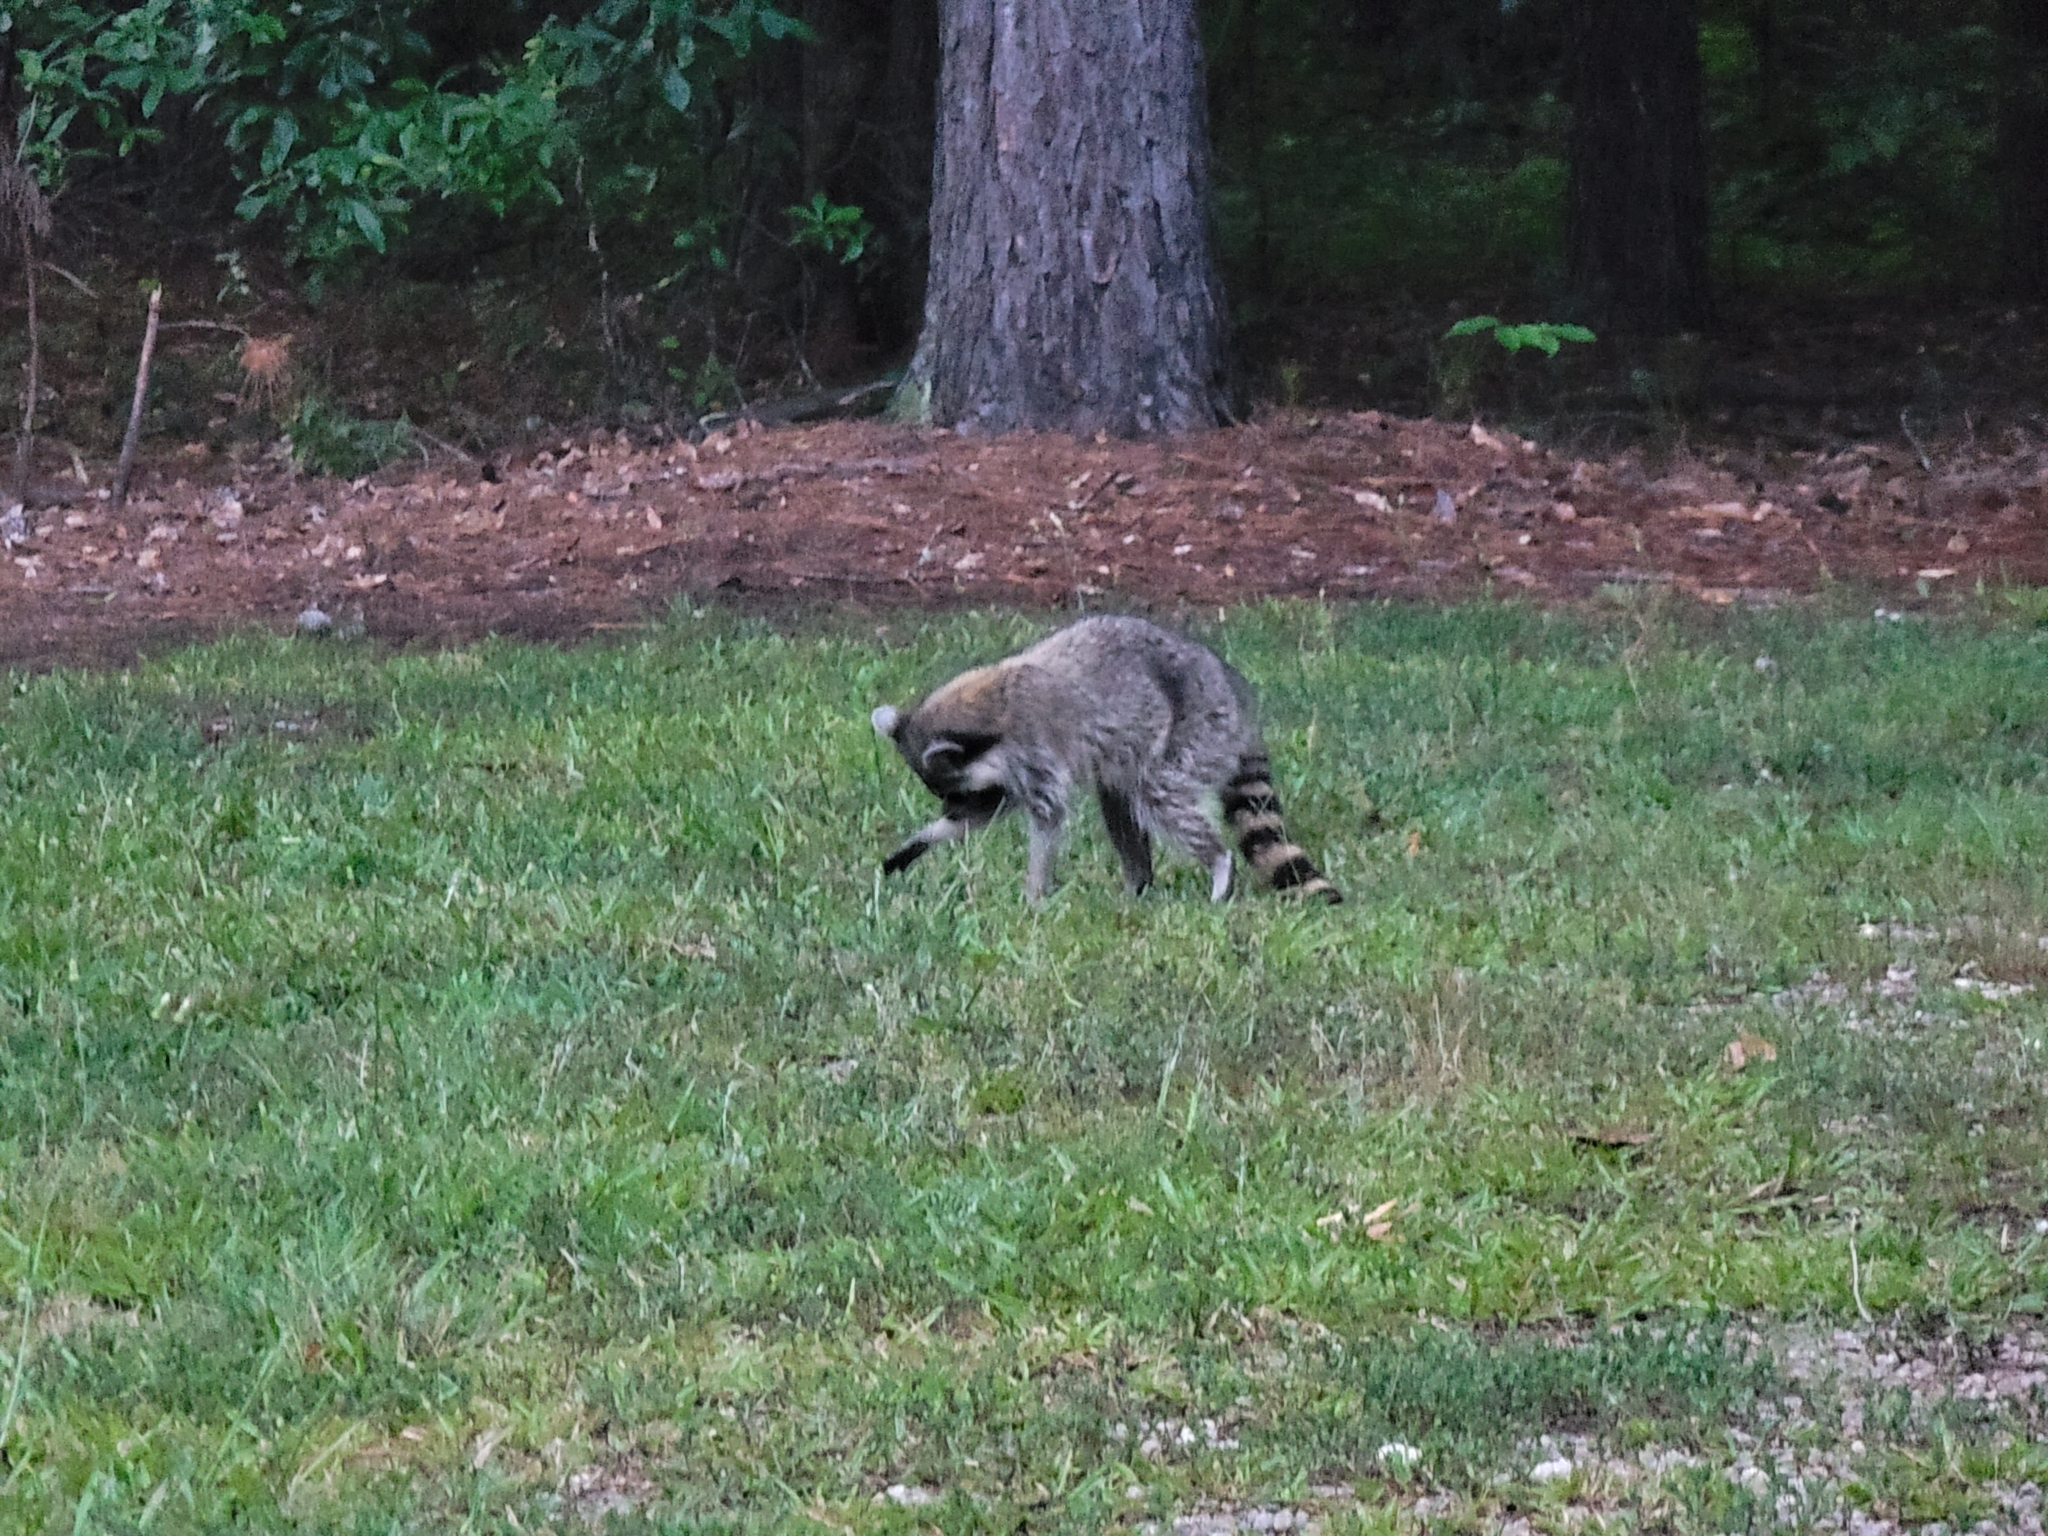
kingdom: Animalia
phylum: Chordata
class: Mammalia
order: Carnivora
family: Procyonidae
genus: Procyon
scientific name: Procyon lotor
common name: Raccoon
